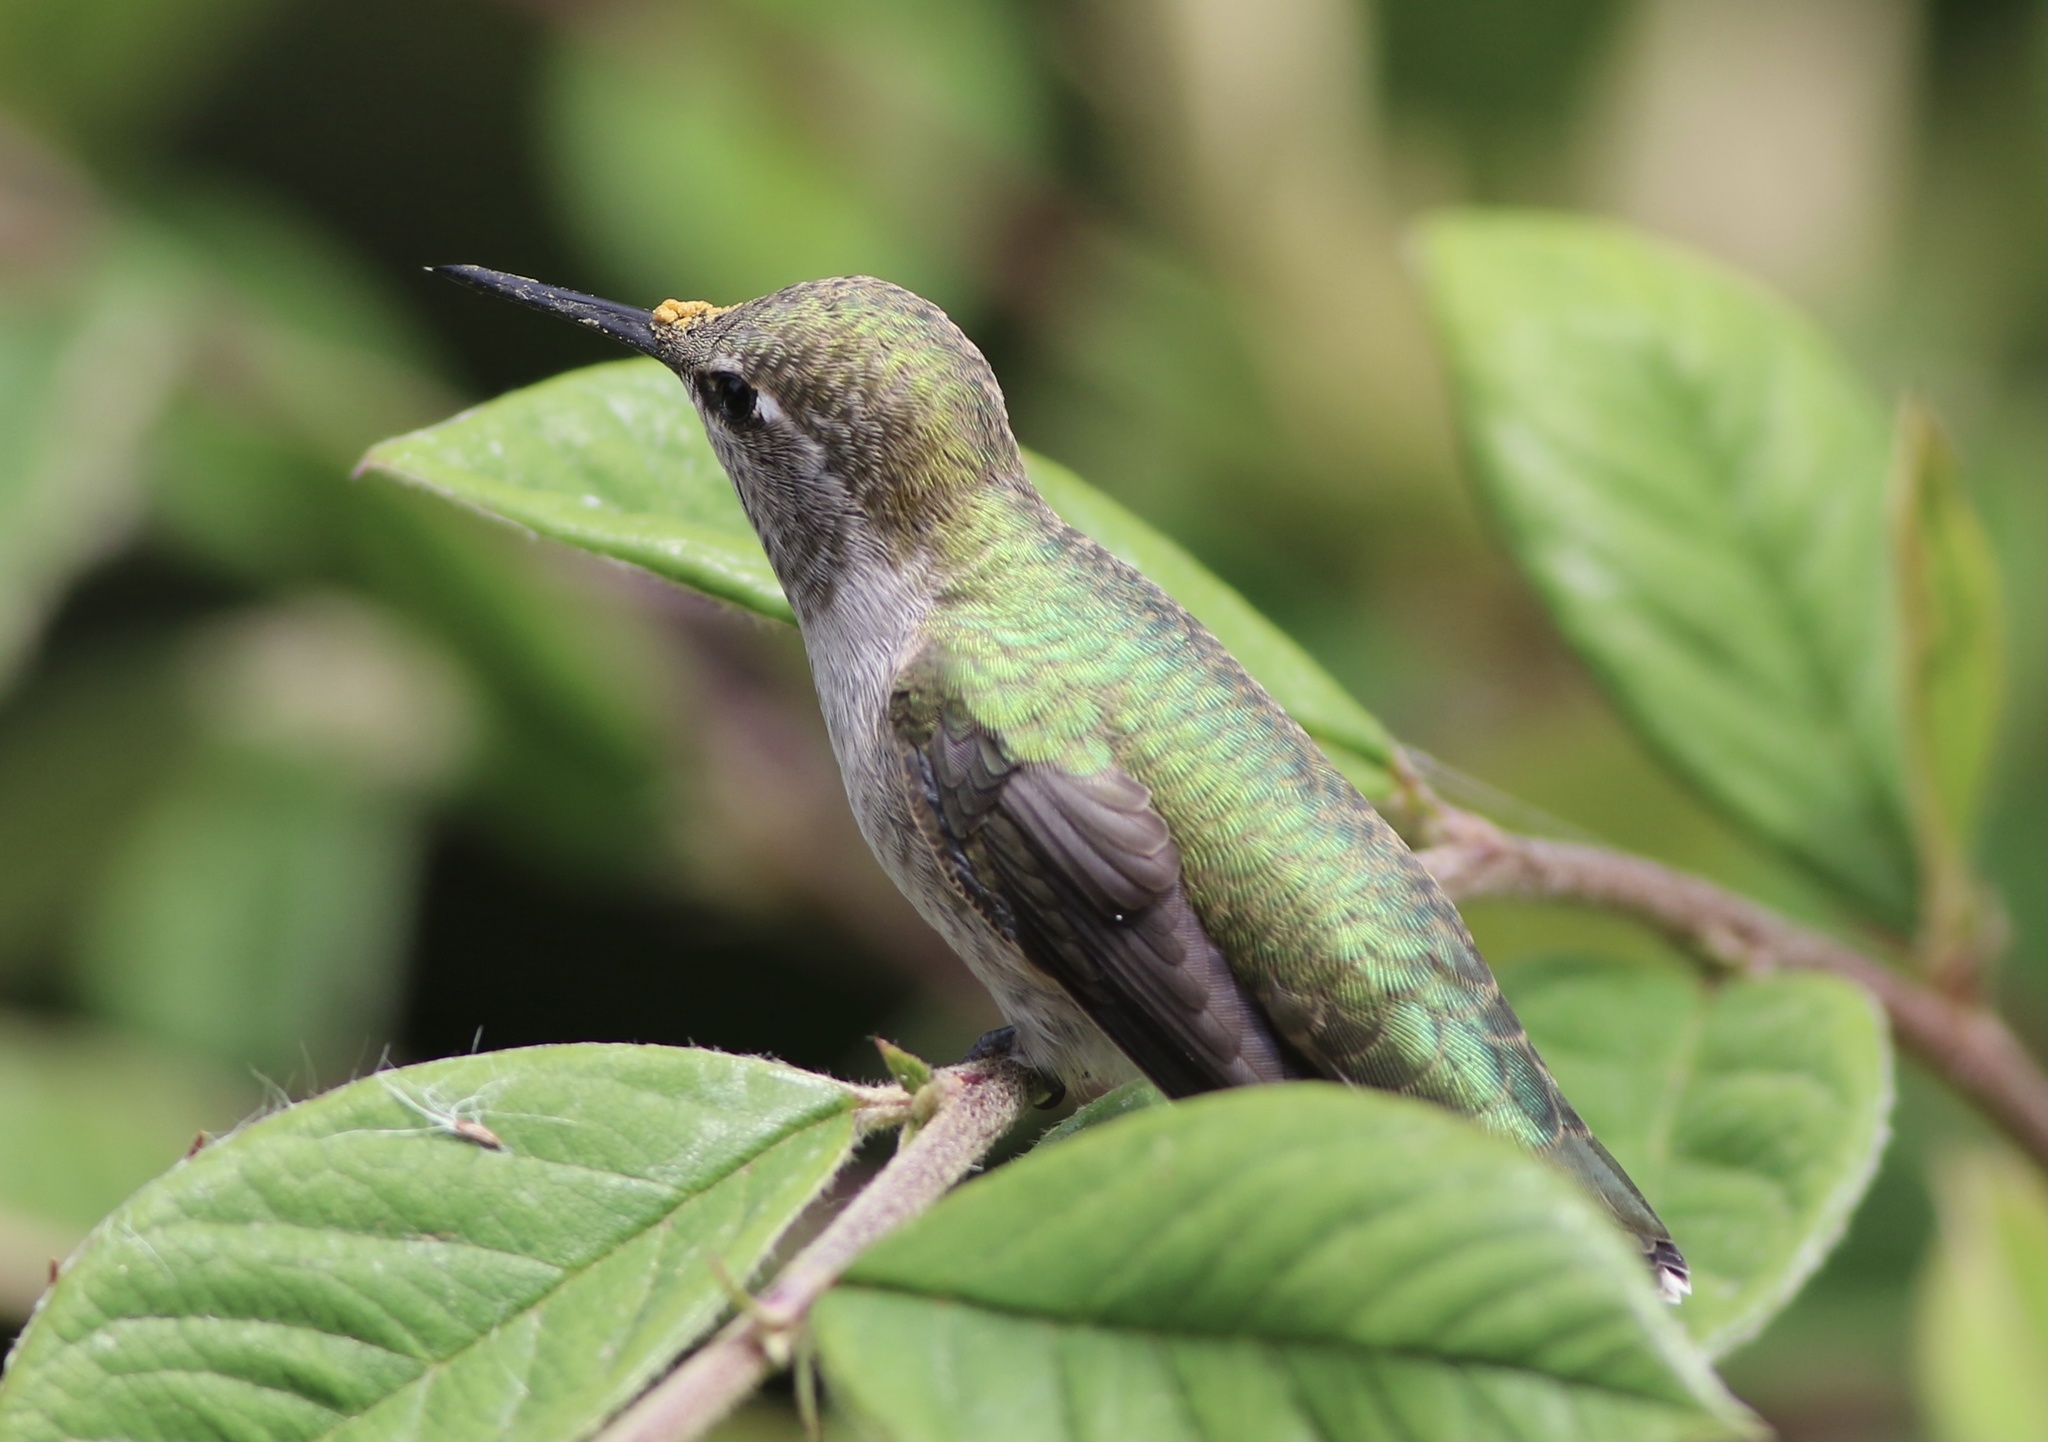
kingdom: Animalia
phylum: Chordata
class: Aves
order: Apodiformes
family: Trochilidae
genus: Calypte
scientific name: Calypte anna
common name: Anna's hummingbird
